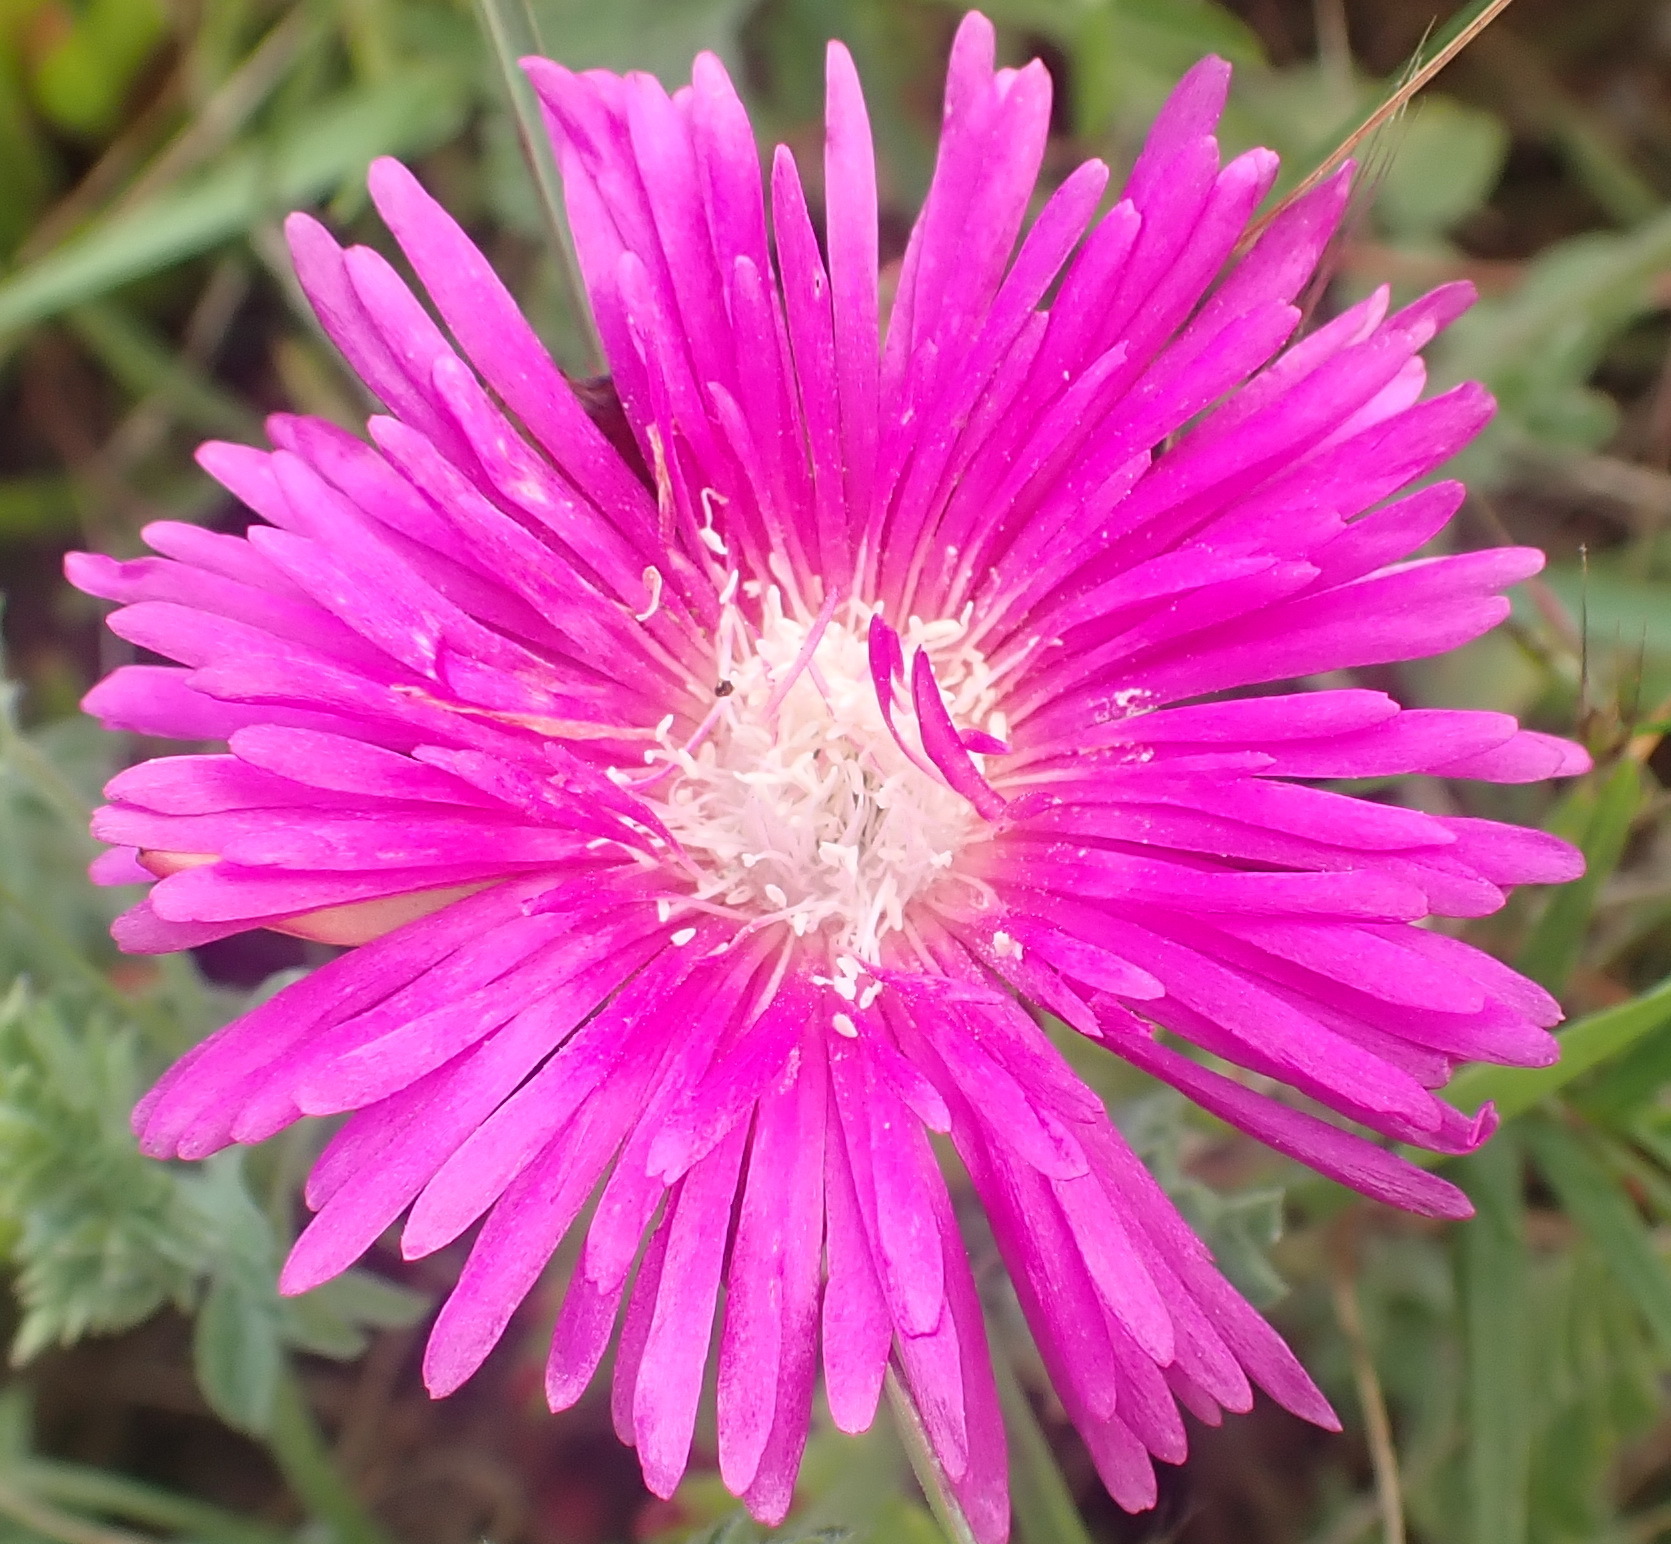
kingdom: Plantae
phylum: Tracheophyta
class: Magnoliopsida
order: Caryophyllales
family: Aizoaceae
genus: Ruschia
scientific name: Ruschia duthiae
